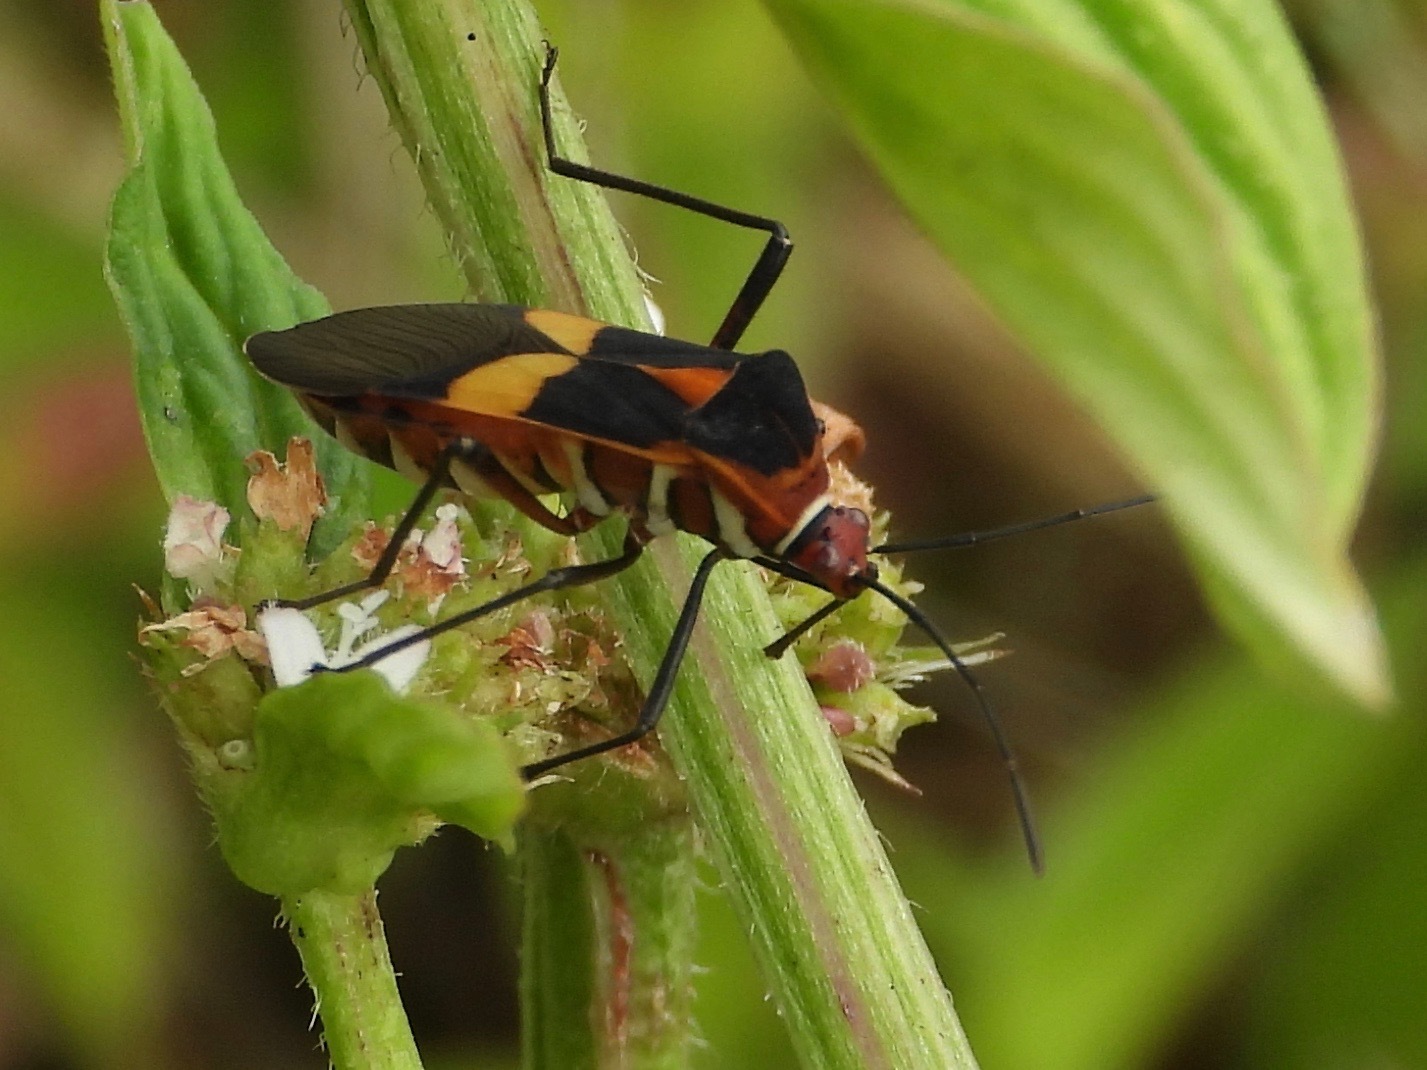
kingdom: Animalia
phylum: Arthropoda
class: Insecta
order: Hemiptera
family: Coreidae
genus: Hypselonotus
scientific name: Hypselonotus interruptus
